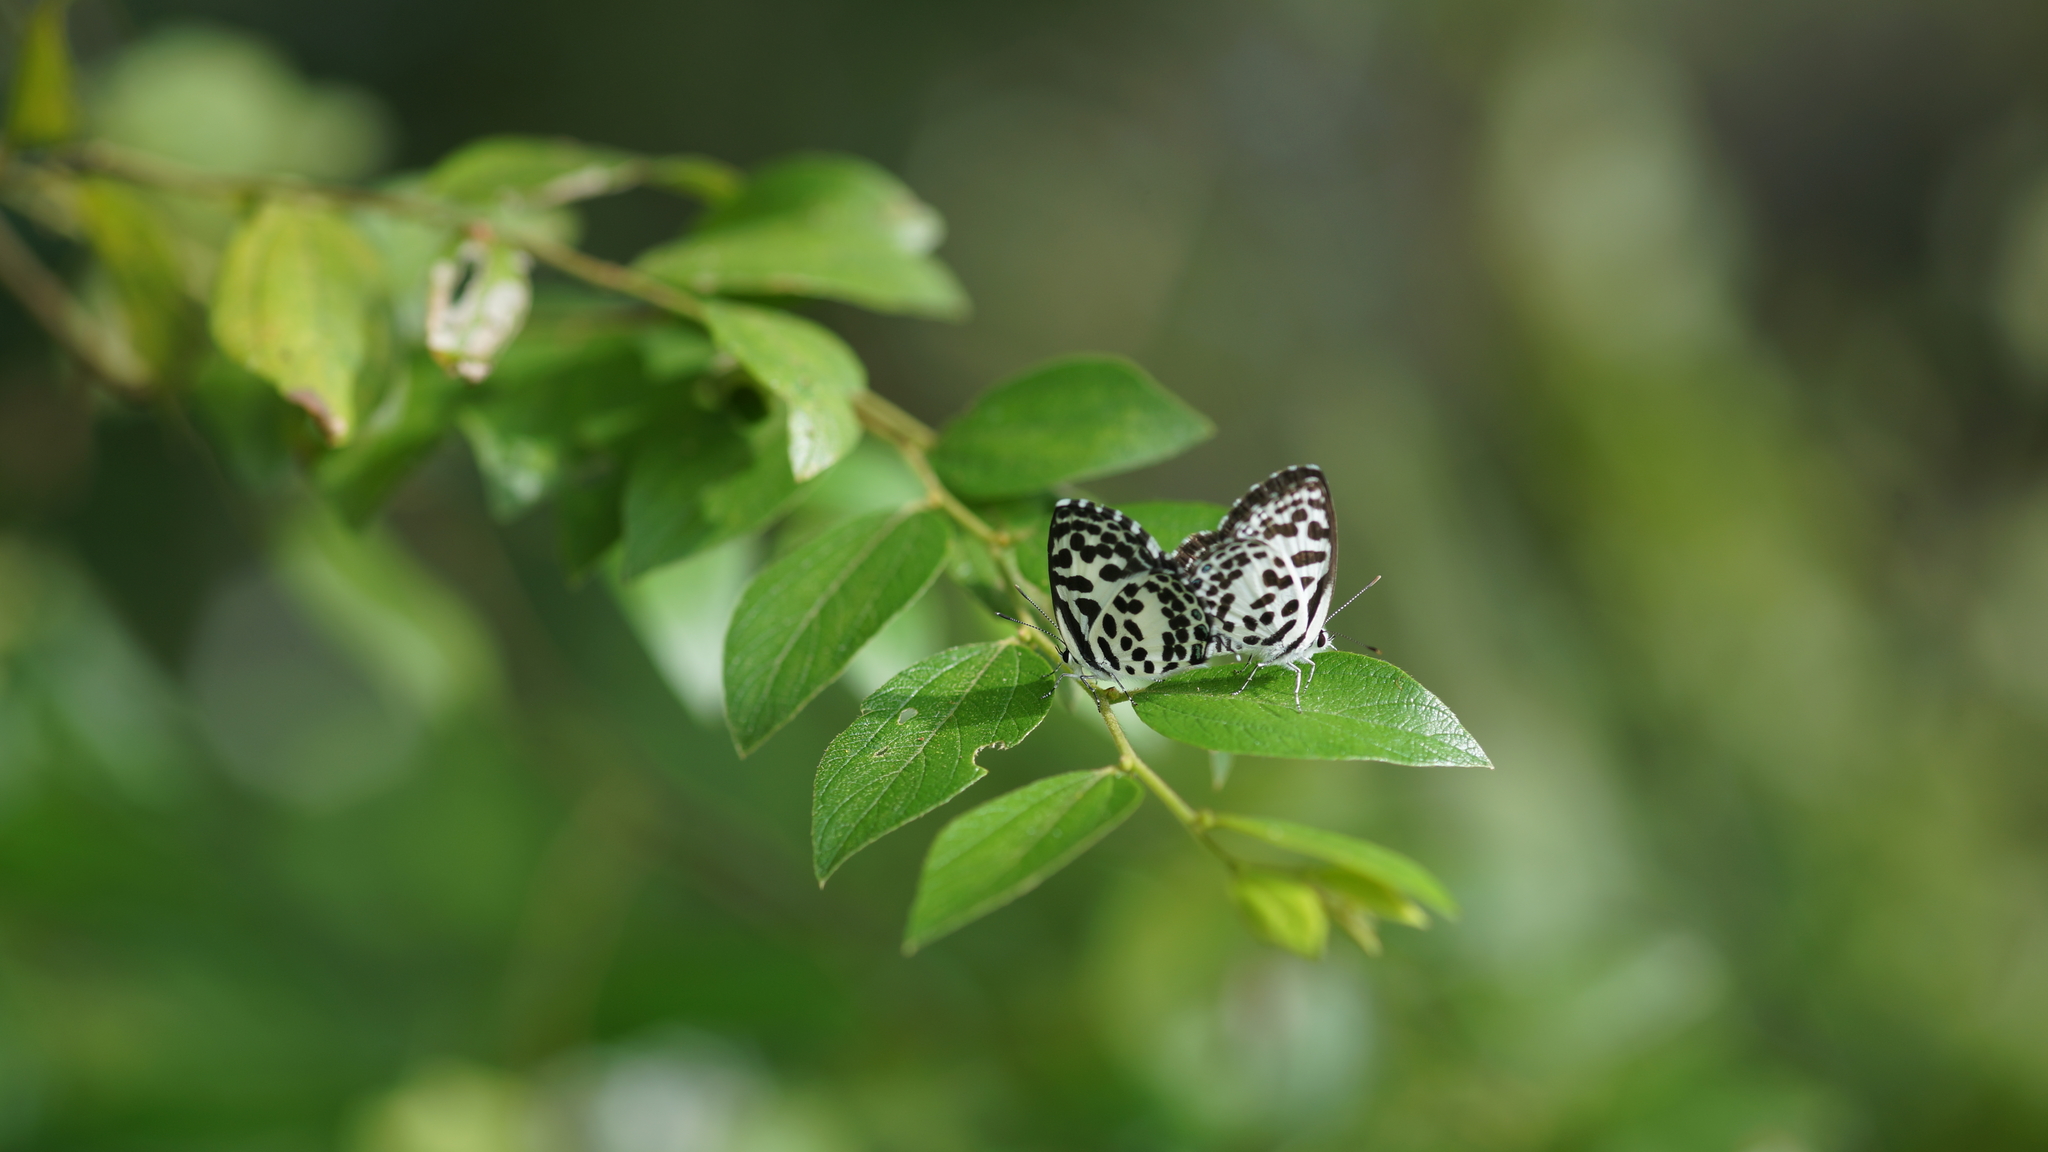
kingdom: Animalia
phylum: Arthropoda
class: Insecta
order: Lepidoptera
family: Lycaenidae
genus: Castalius
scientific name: Castalius rosimon
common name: Common pierrot
